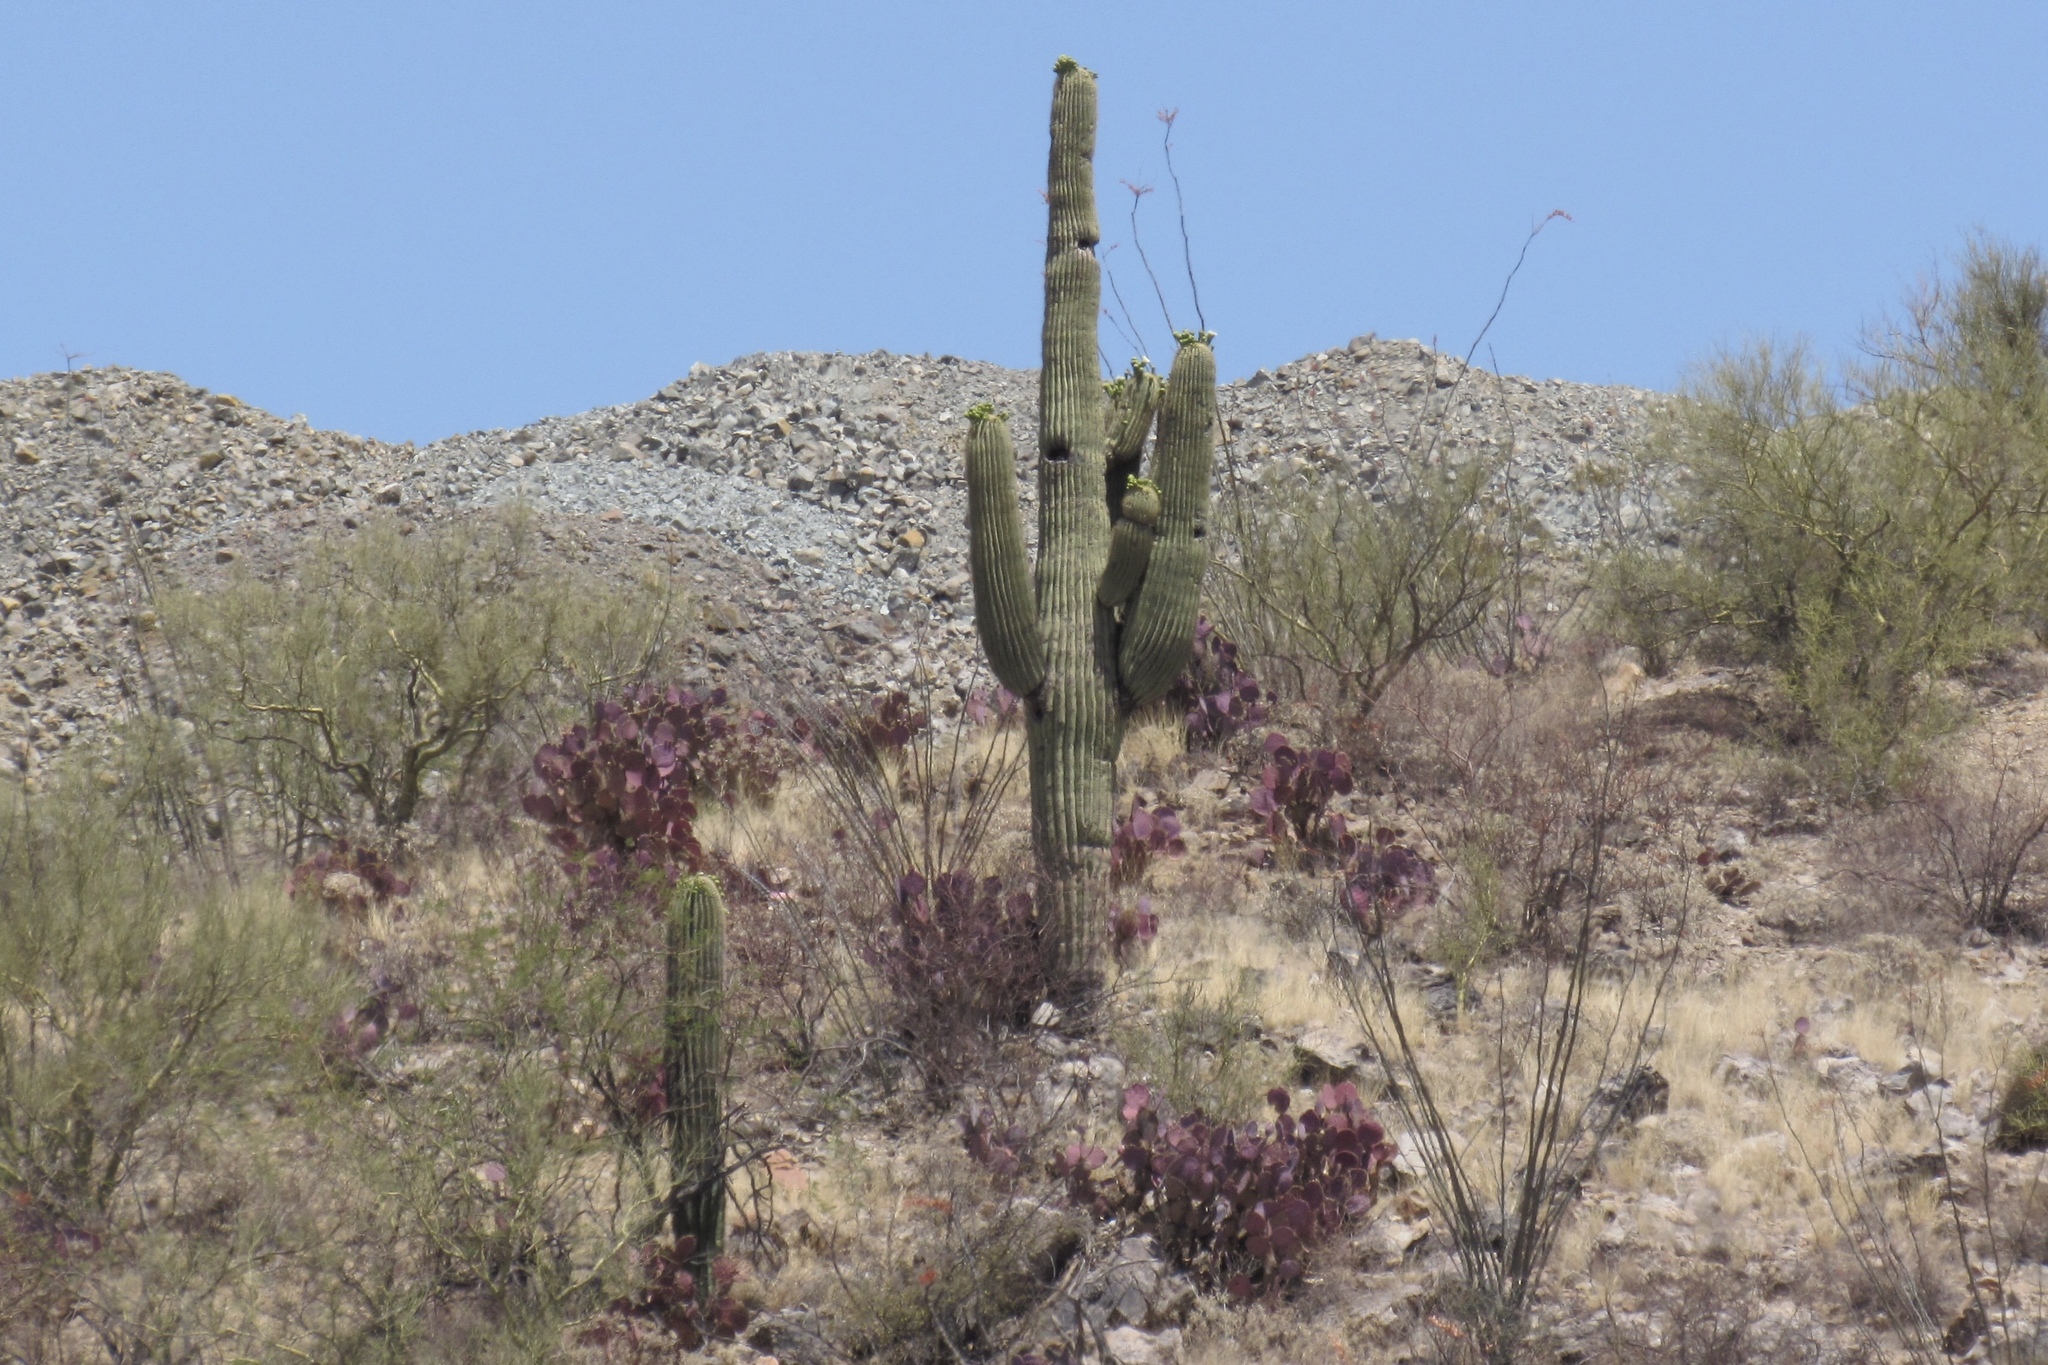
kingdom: Plantae
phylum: Tracheophyta
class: Magnoliopsida
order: Caryophyllales
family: Cactaceae
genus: Carnegiea
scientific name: Carnegiea gigantea
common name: Saguaro
